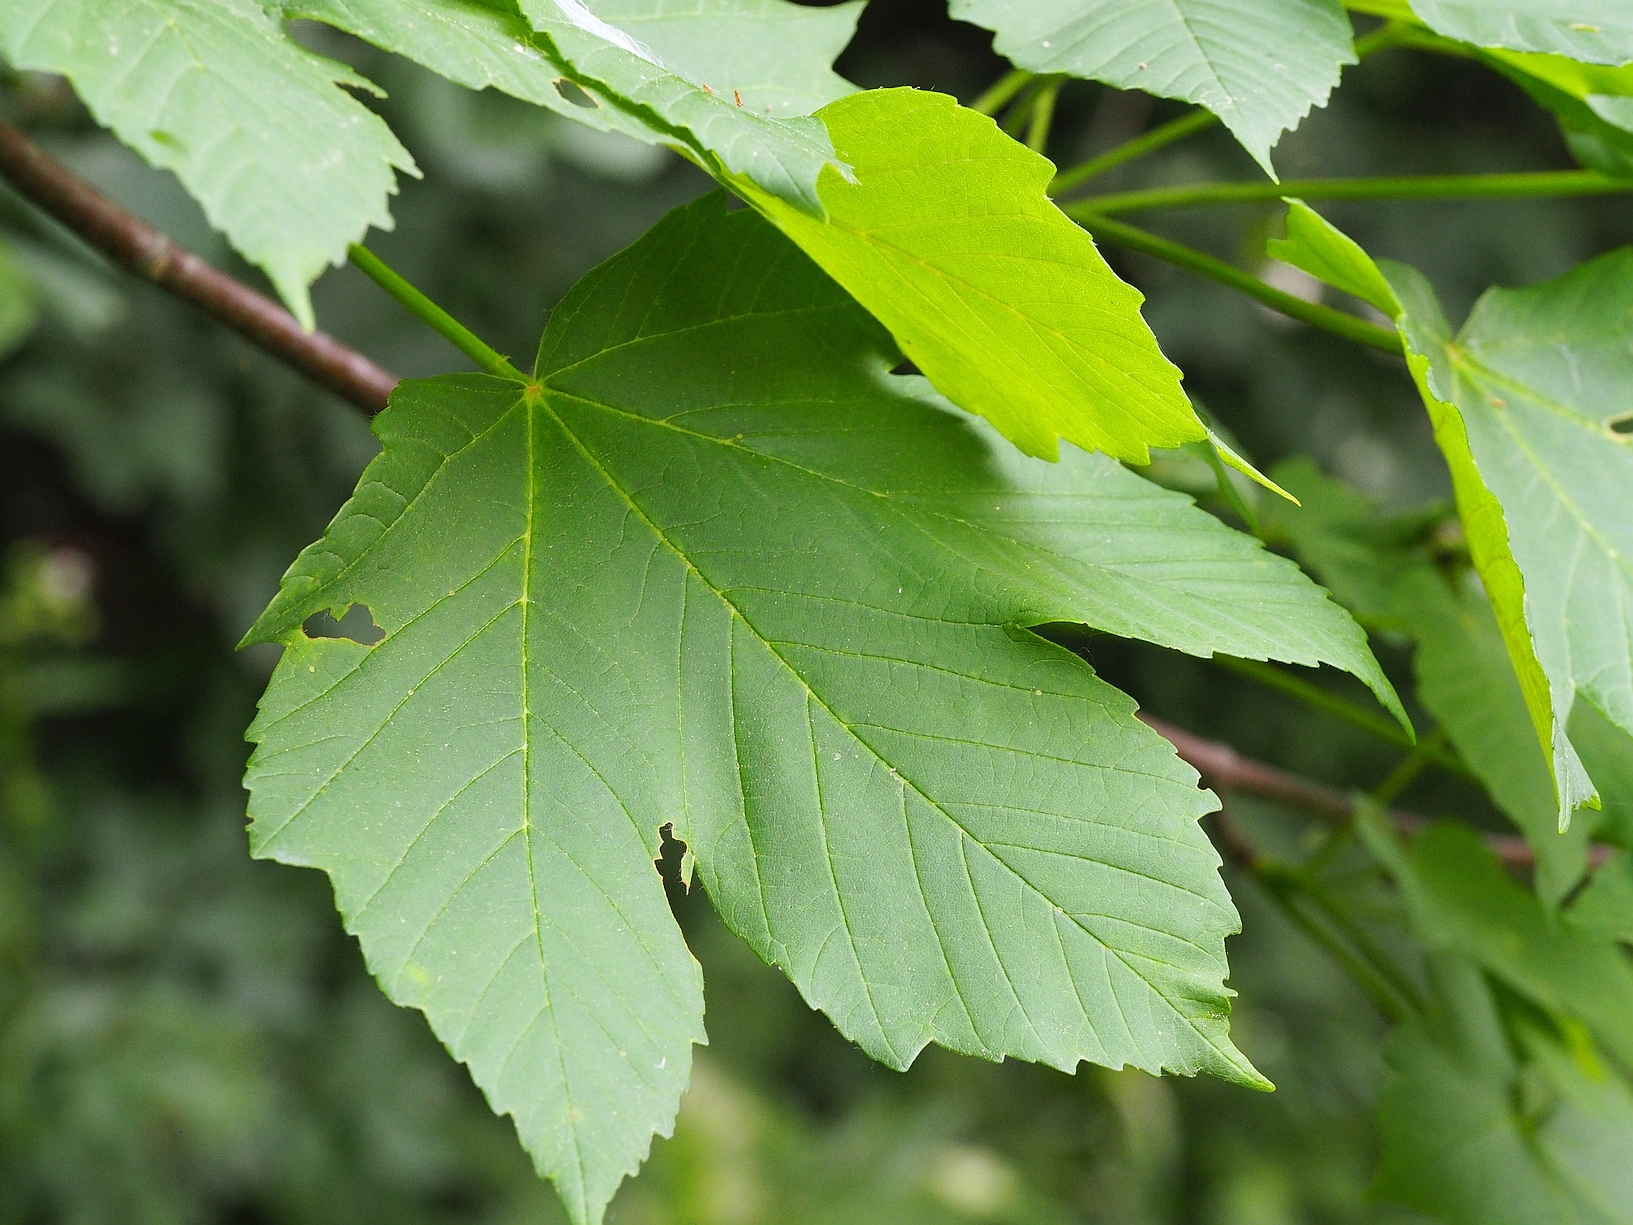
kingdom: Plantae
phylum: Tracheophyta
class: Magnoliopsida
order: Sapindales
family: Sapindaceae
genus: Acer
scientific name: Acer pseudoplatanus
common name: Sycamore
